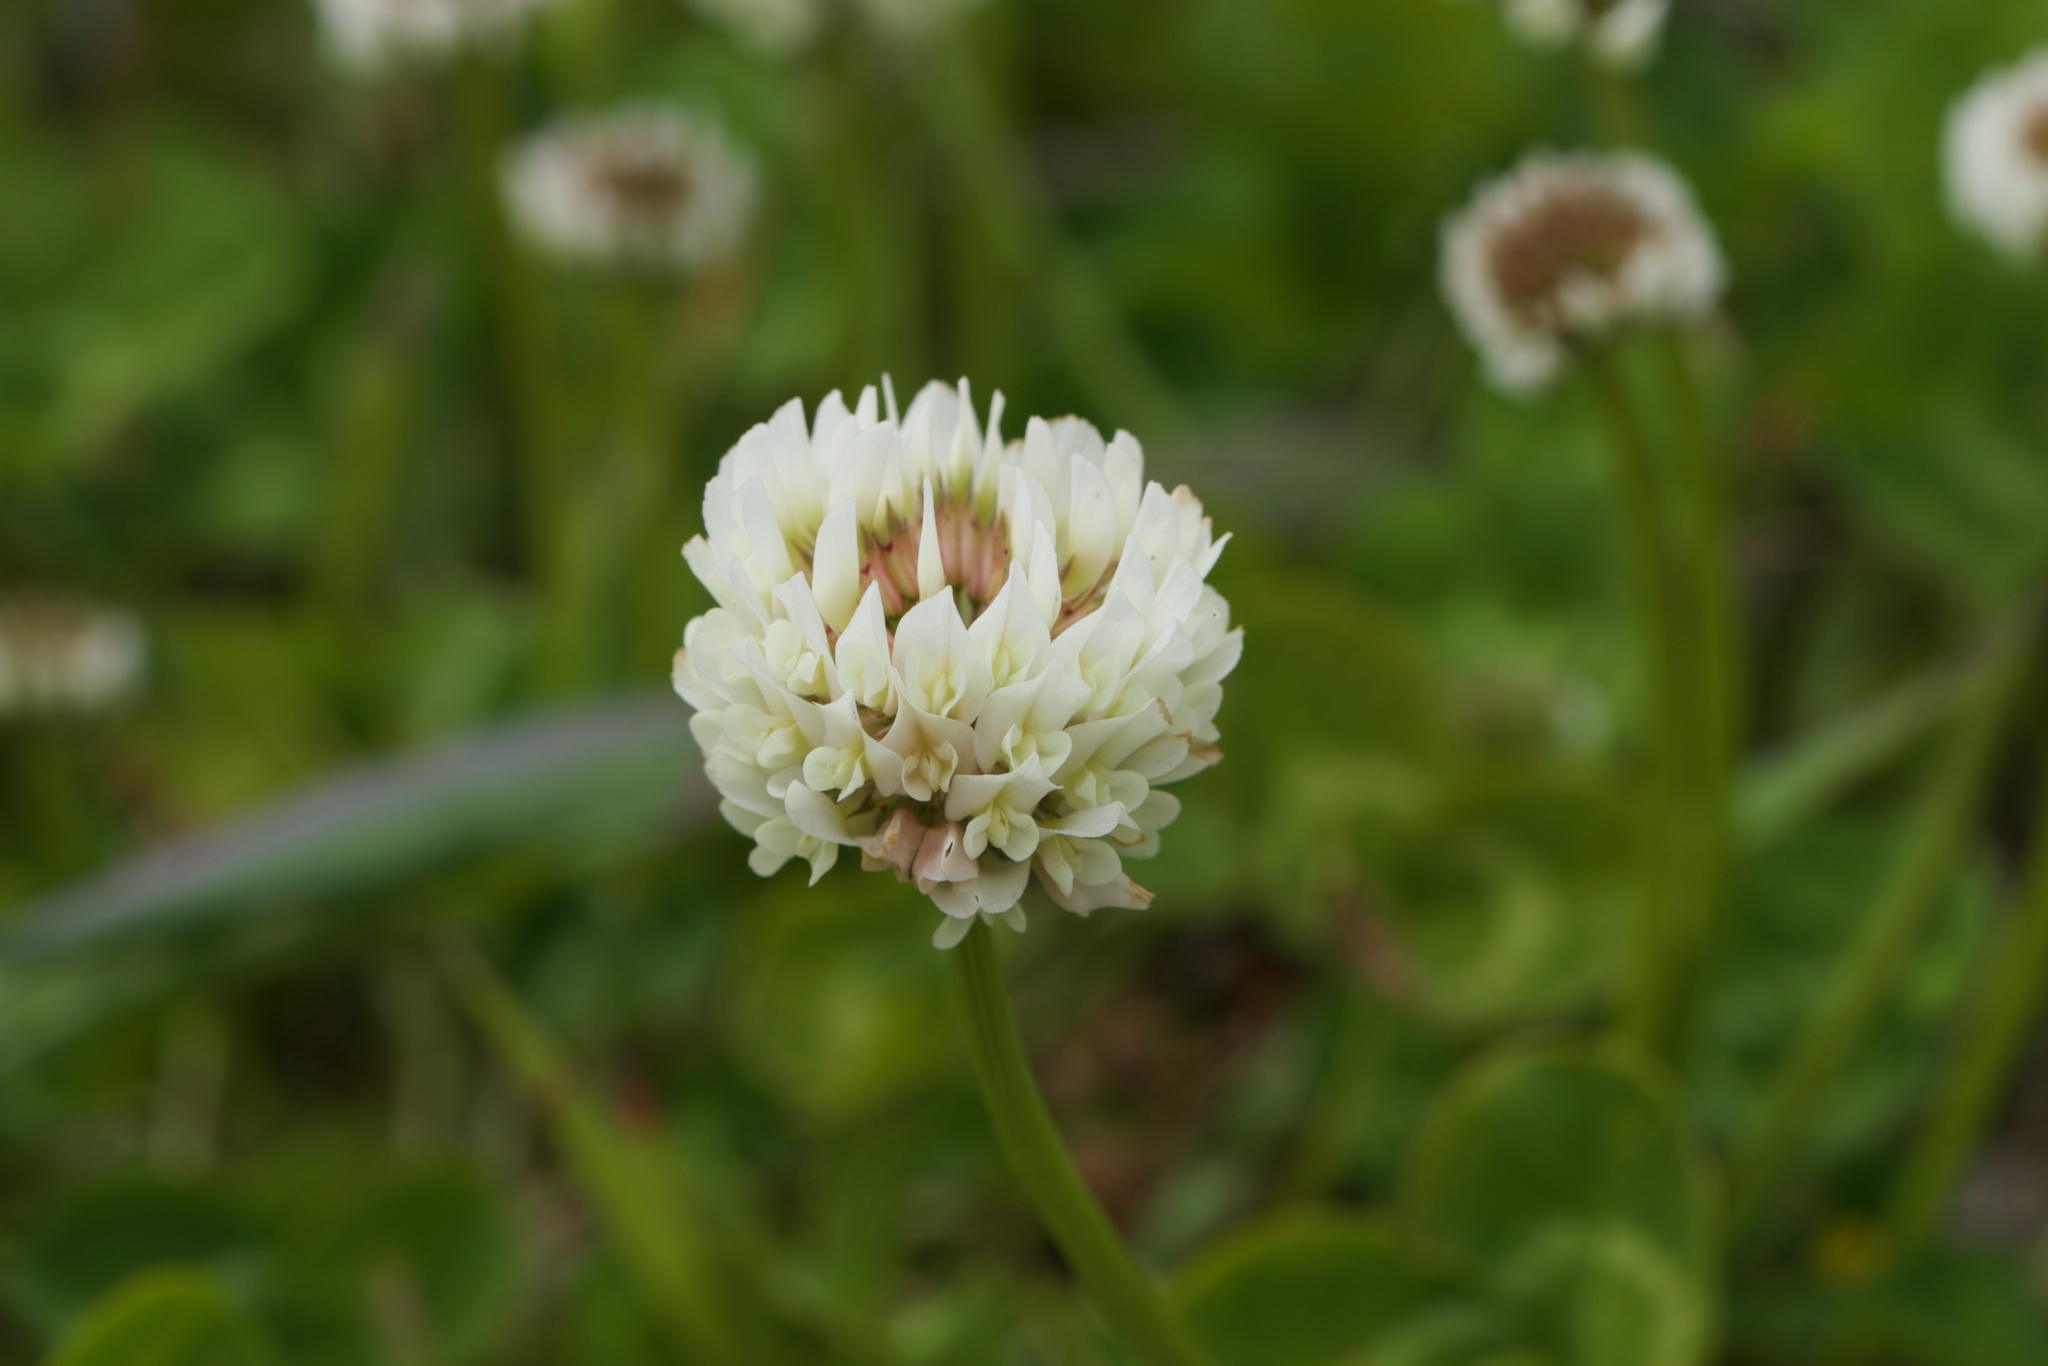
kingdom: Plantae
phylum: Tracheophyta
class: Magnoliopsida
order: Fabales
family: Fabaceae
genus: Trifolium
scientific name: Trifolium repens
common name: White clover
